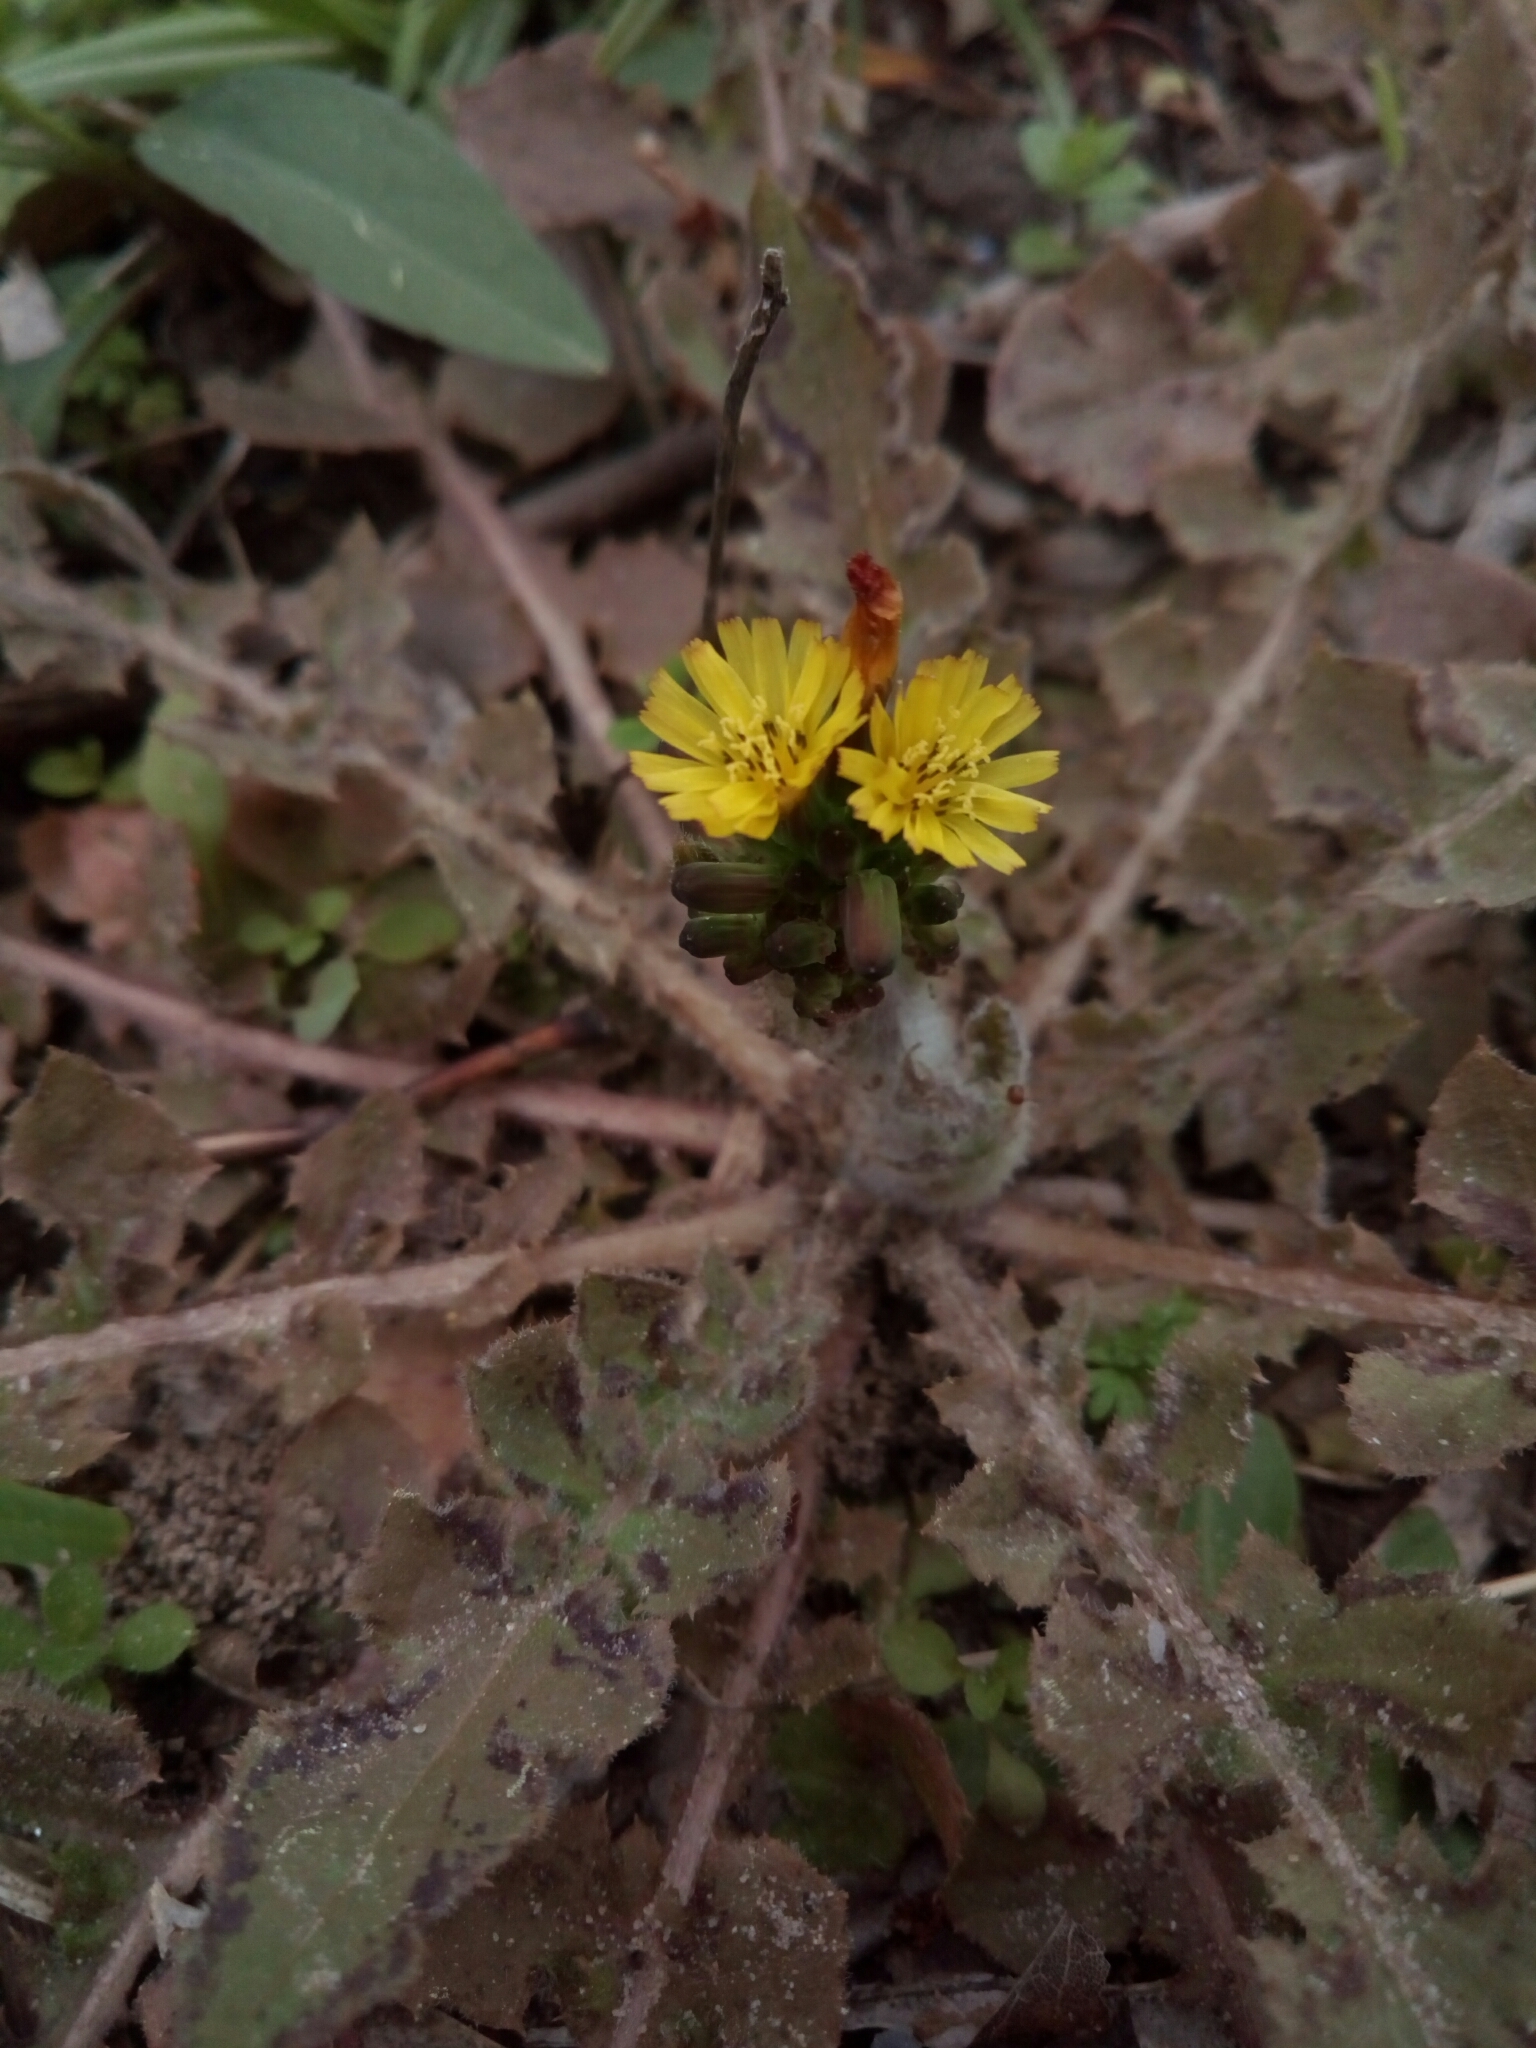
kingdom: Plantae
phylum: Tracheophyta
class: Magnoliopsida
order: Asterales
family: Asteraceae
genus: Youngia
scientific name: Youngia japonica
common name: Oriental false hawksbeard
